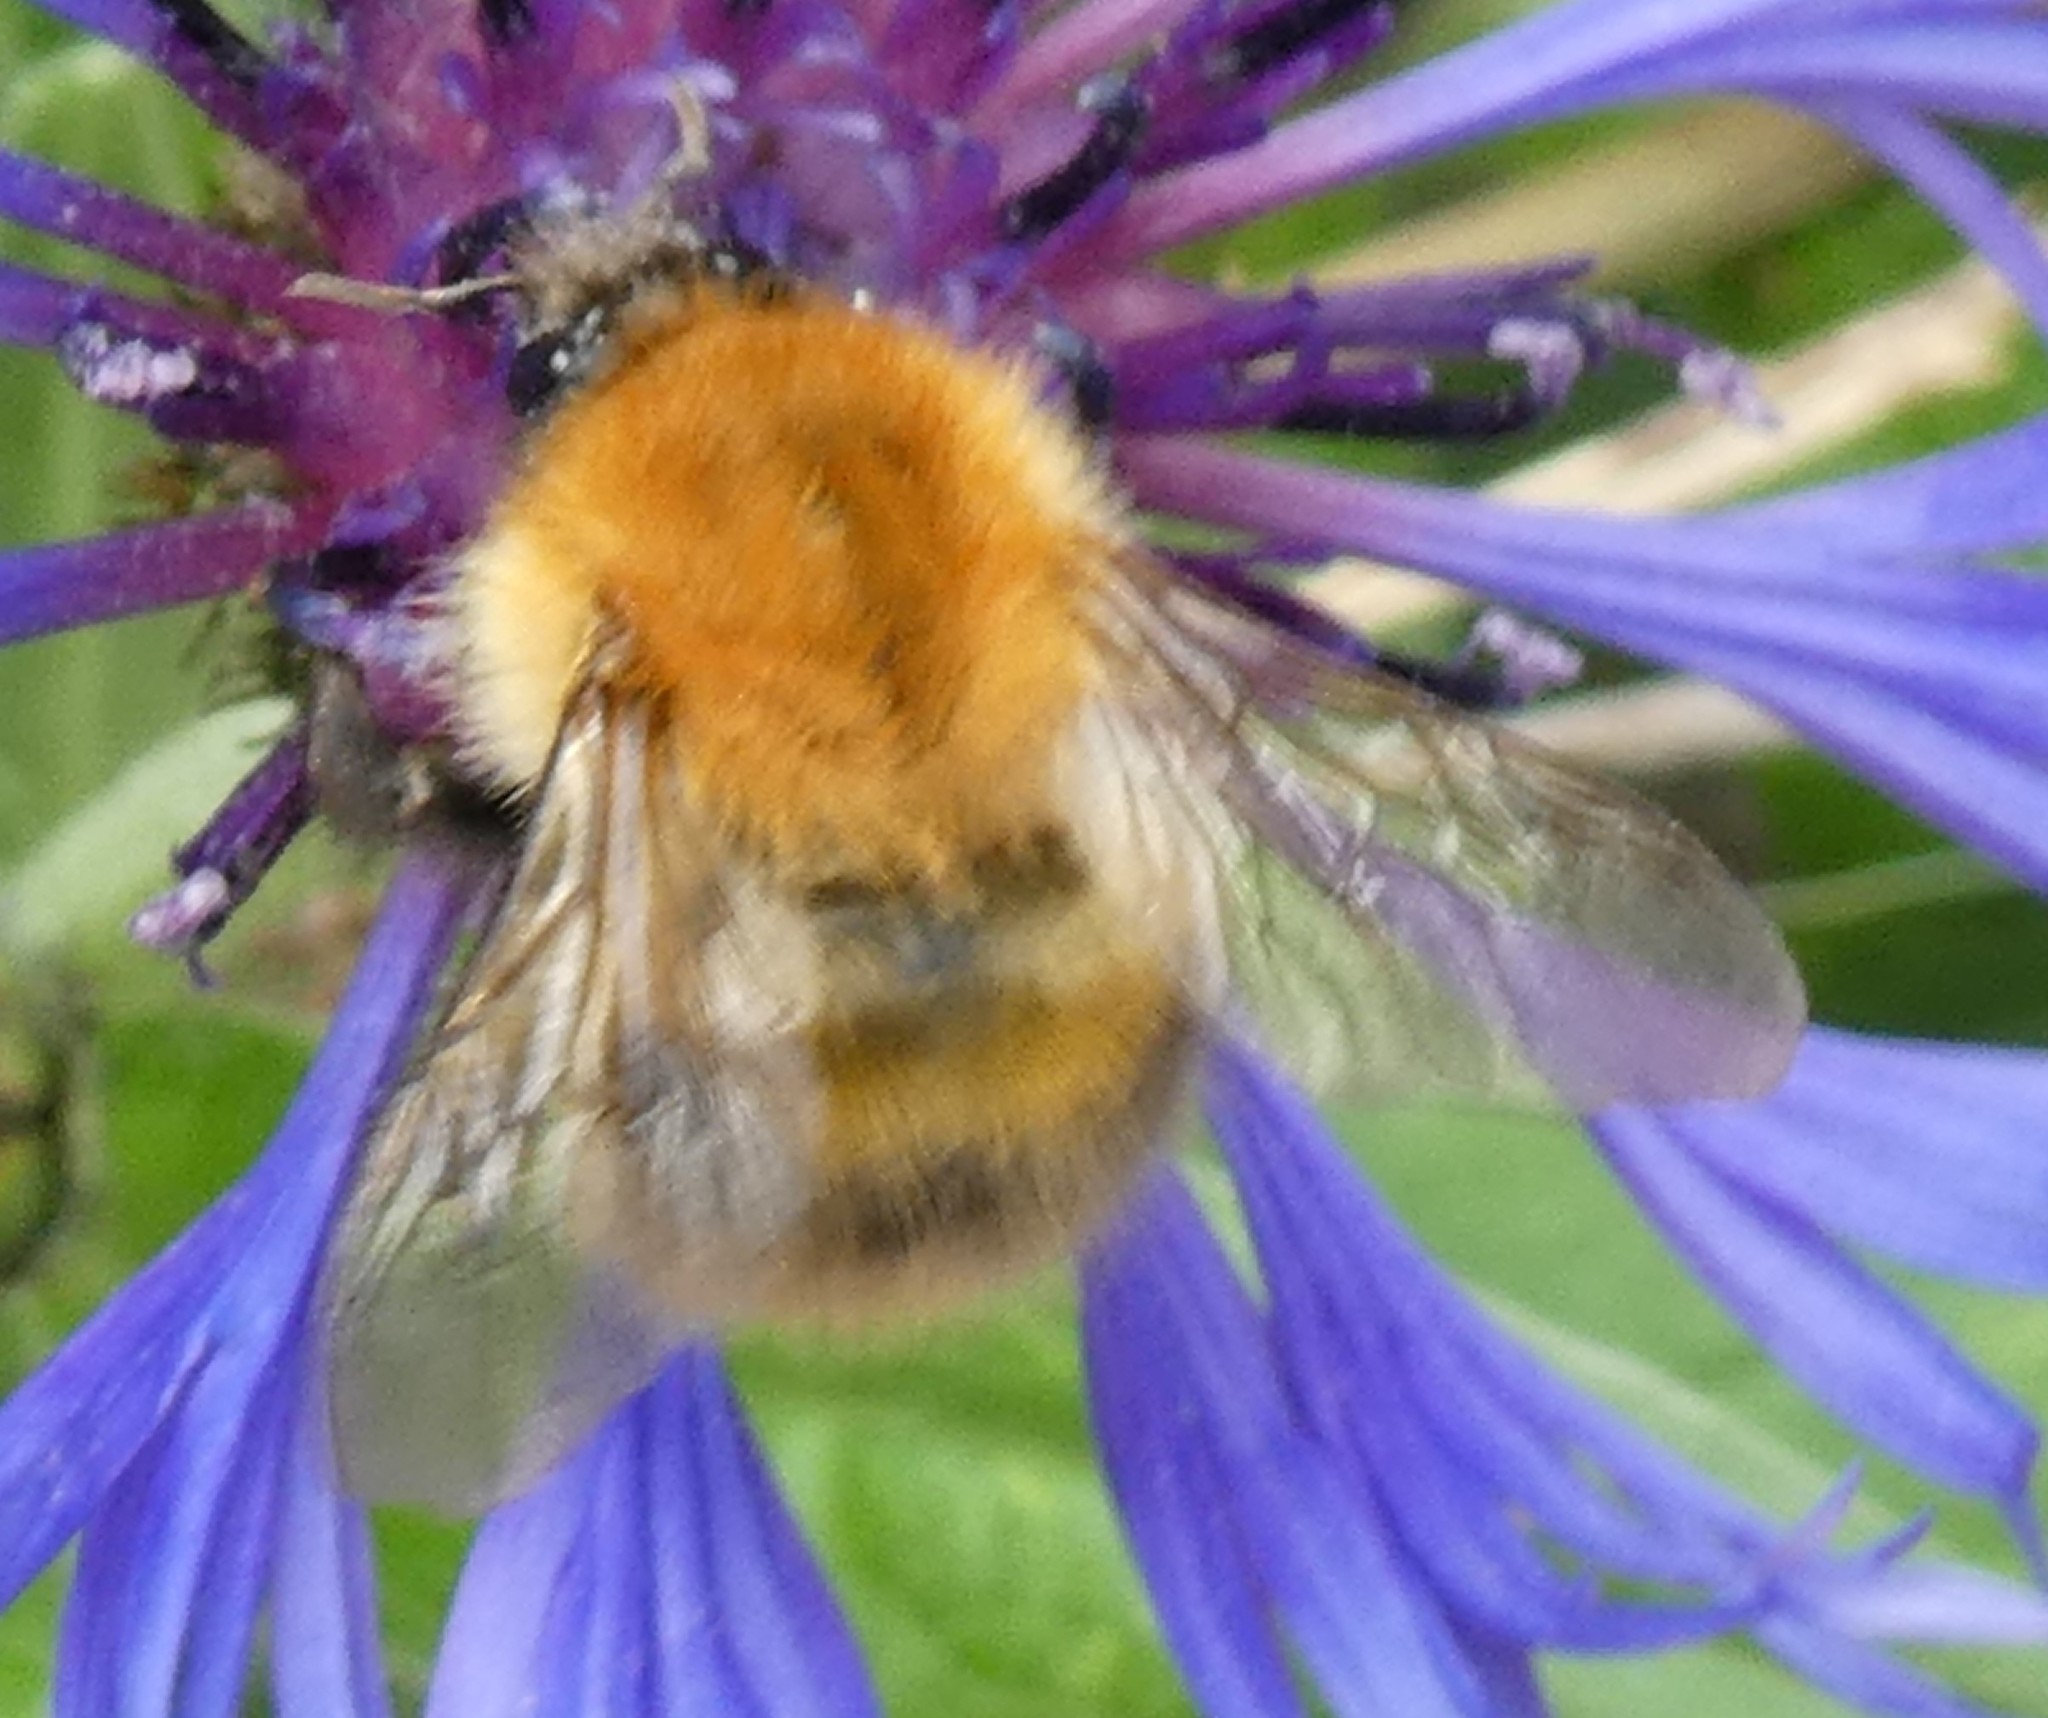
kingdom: Animalia
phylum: Arthropoda
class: Insecta
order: Hymenoptera
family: Apidae
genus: Bombus
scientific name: Bombus pascuorum
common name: Common carder bee
